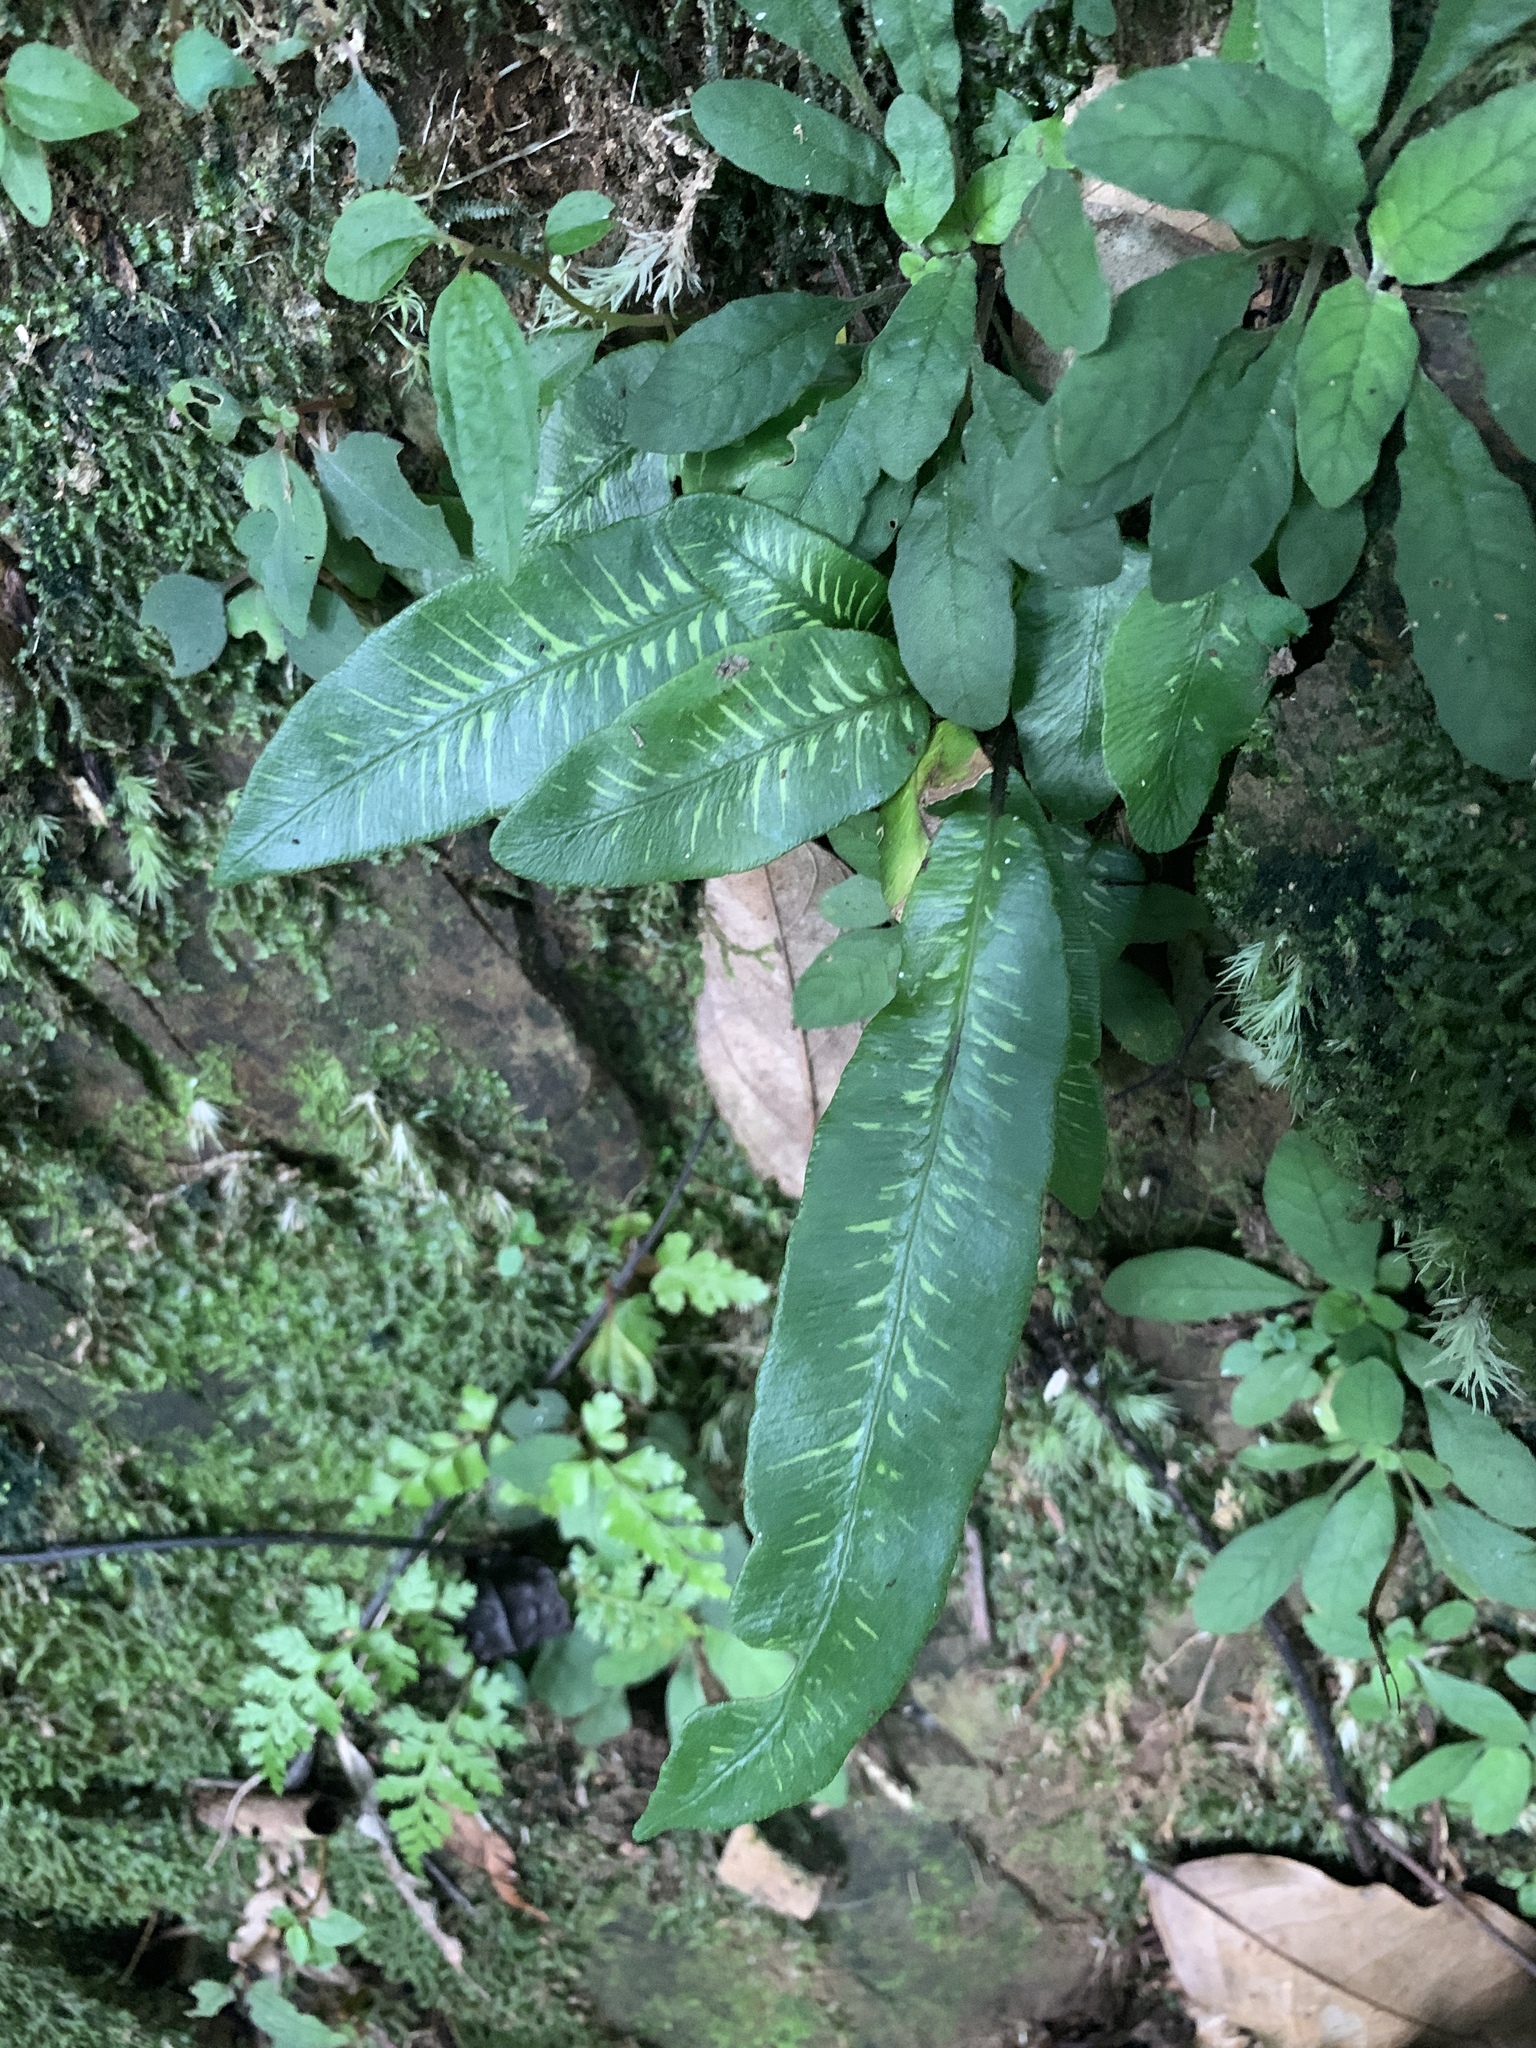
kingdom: Plantae
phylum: Tracheophyta
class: Polypodiopsida
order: Polypodiales
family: Athyriaceae
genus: Deparia
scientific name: Deparia lancea
